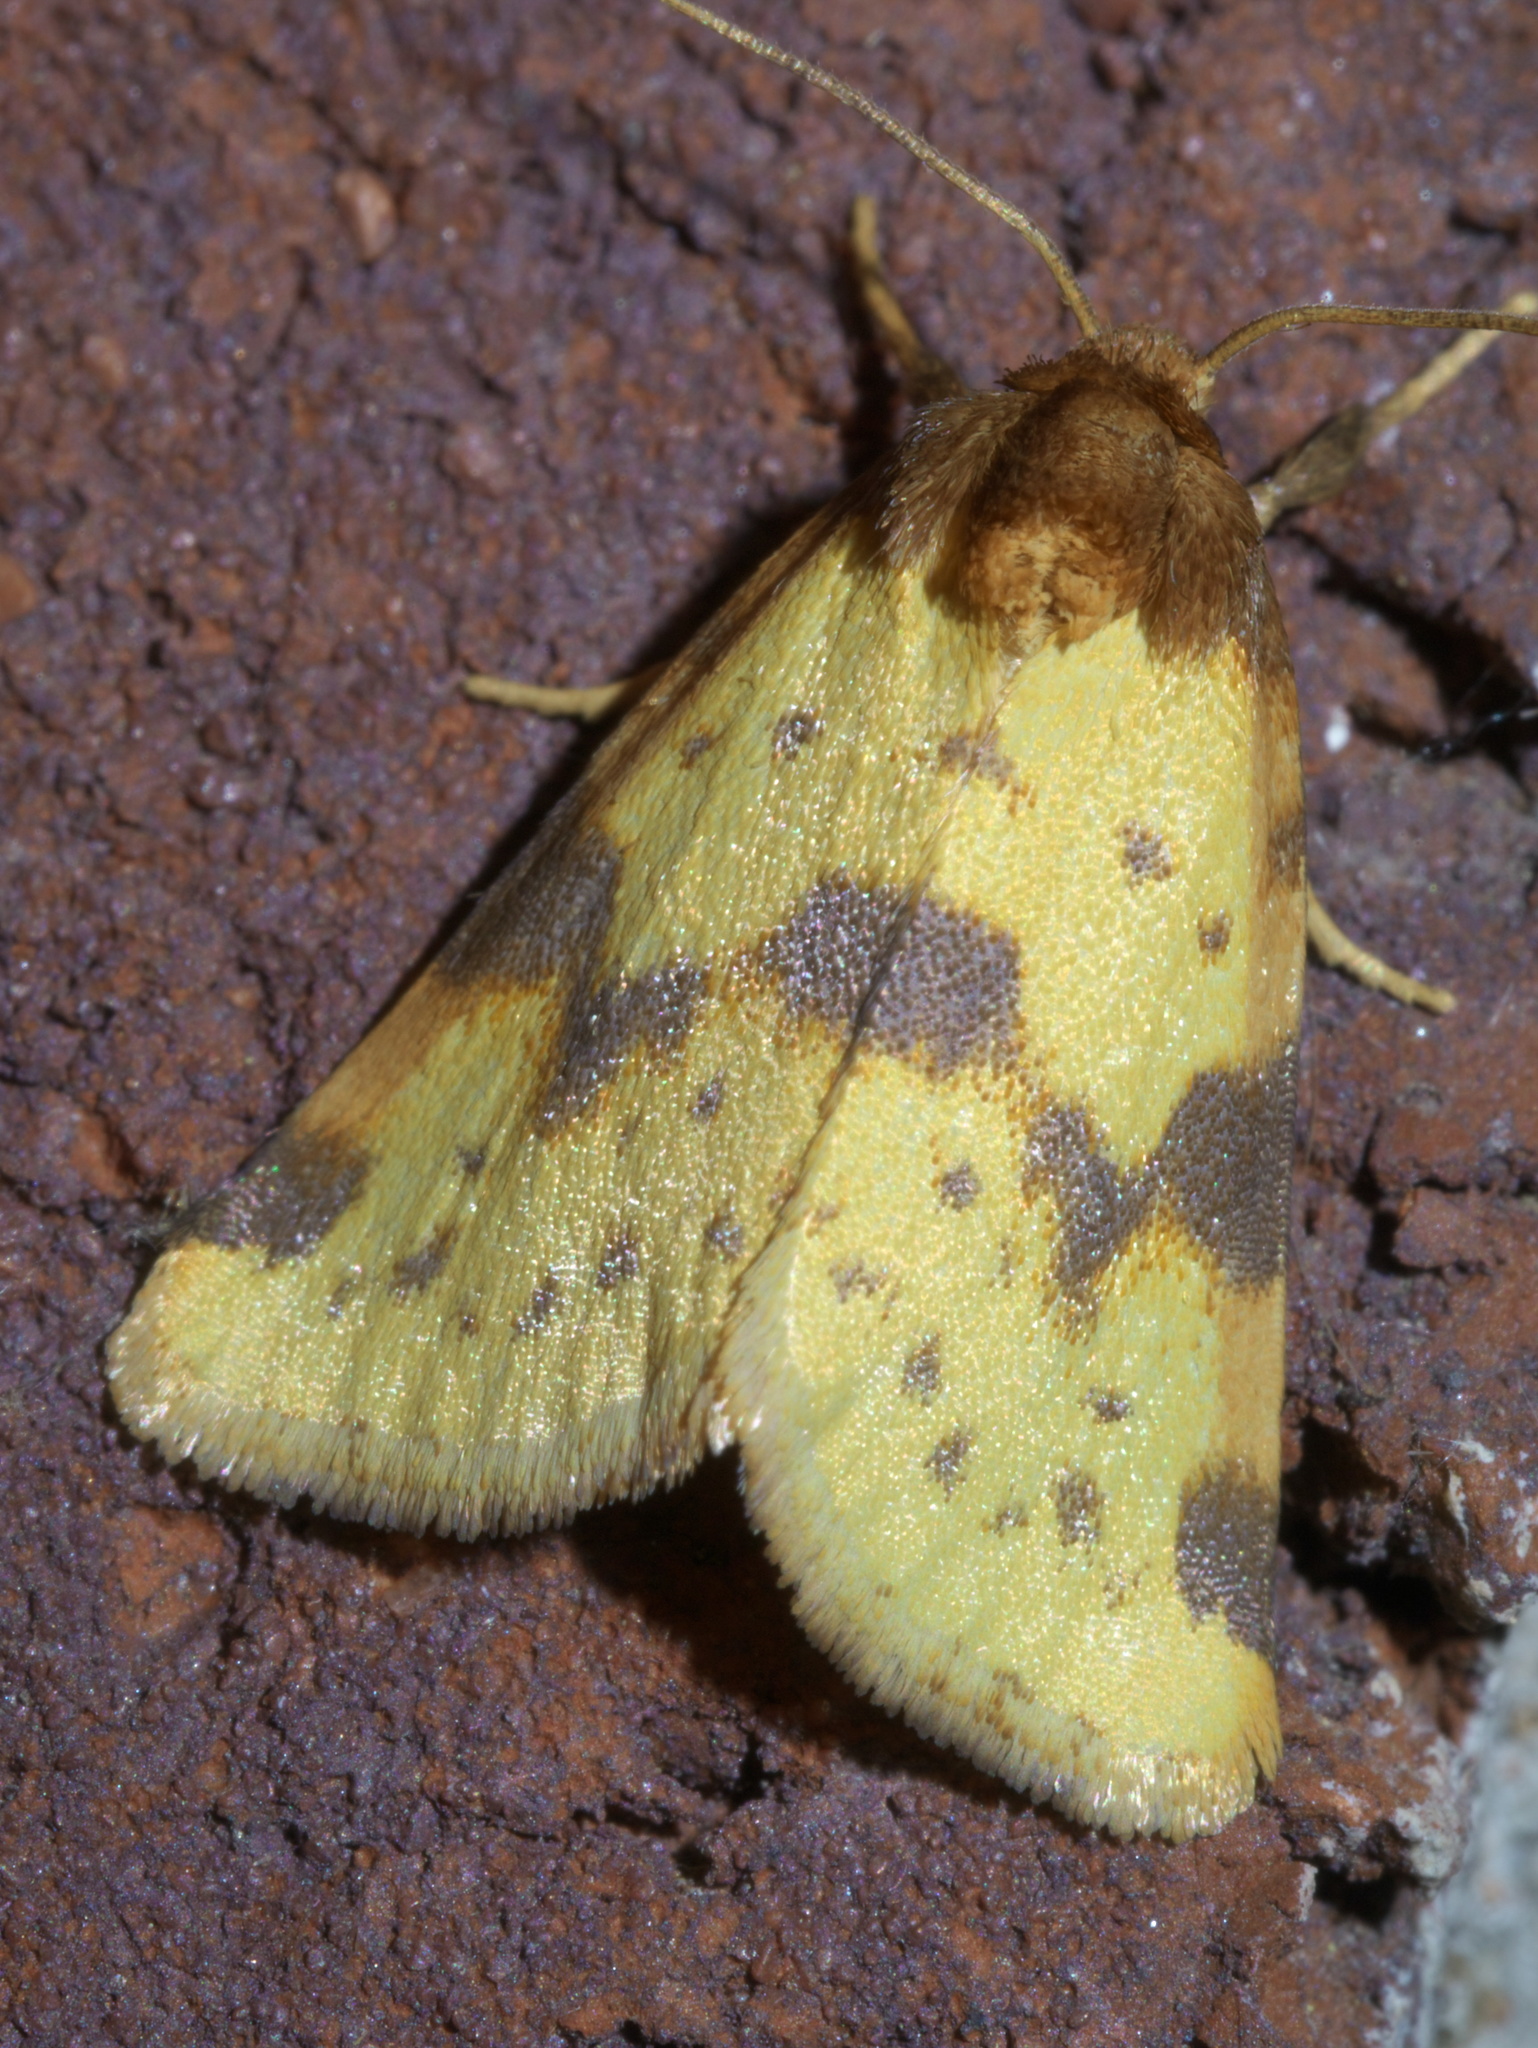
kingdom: Animalia
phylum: Arthropoda
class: Insecta
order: Lepidoptera
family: Noctuidae
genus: Azenia
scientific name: Azenia obtusa
